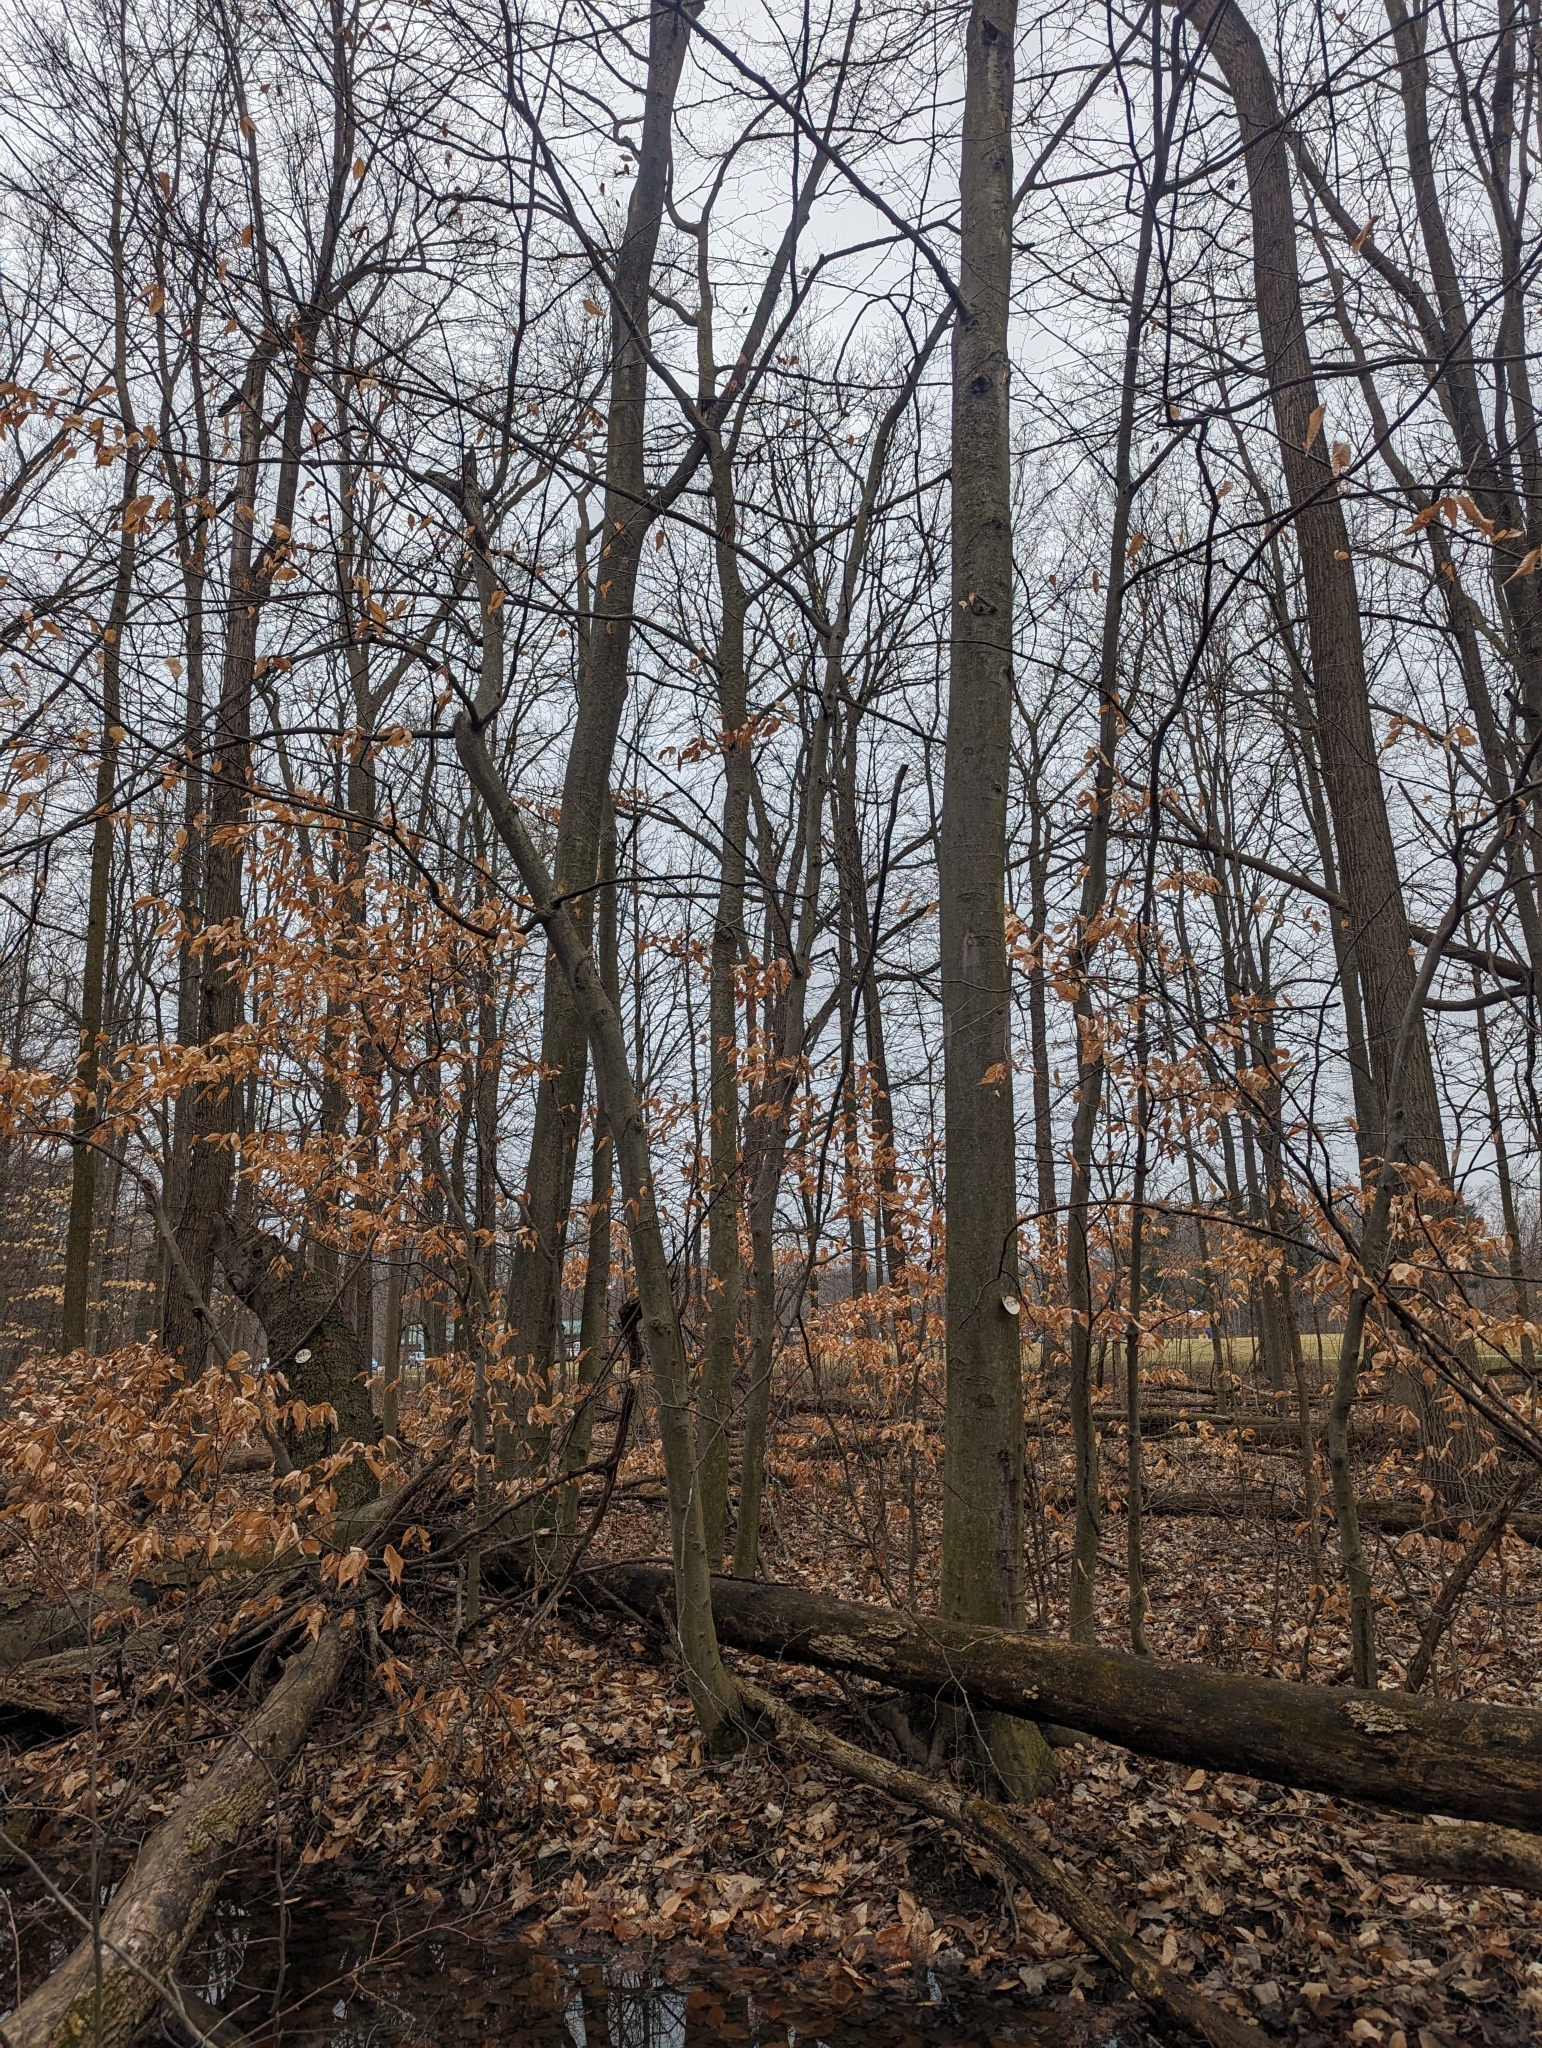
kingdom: Plantae
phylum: Tracheophyta
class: Magnoliopsida
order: Fagales
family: Fagaceae
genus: Fagus
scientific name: Fagus grandifolia
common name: American beech
